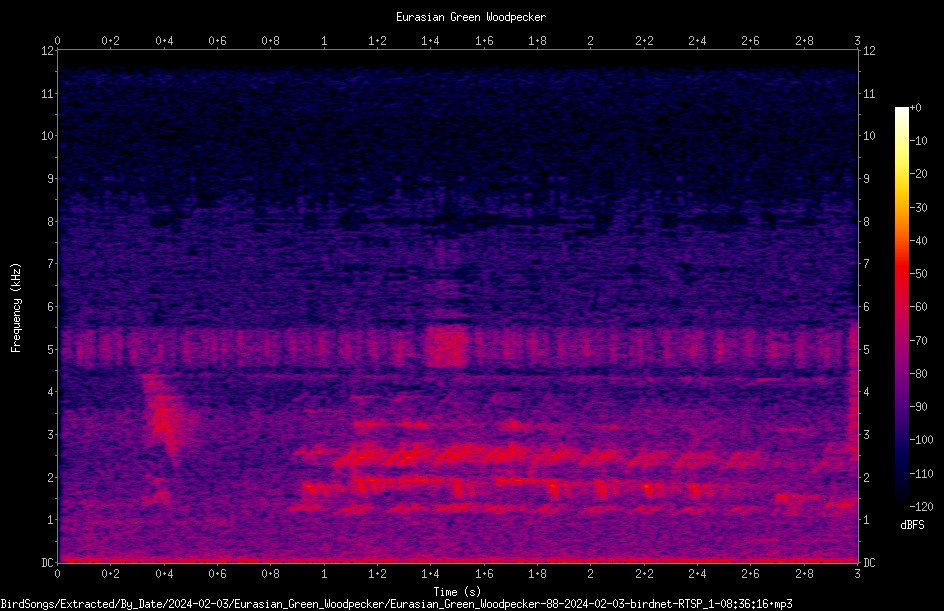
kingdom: Animalia
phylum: Chordata
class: Aves
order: Piciformes
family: Picidae
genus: Picus
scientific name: Picus viridis
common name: European green woodpecker
